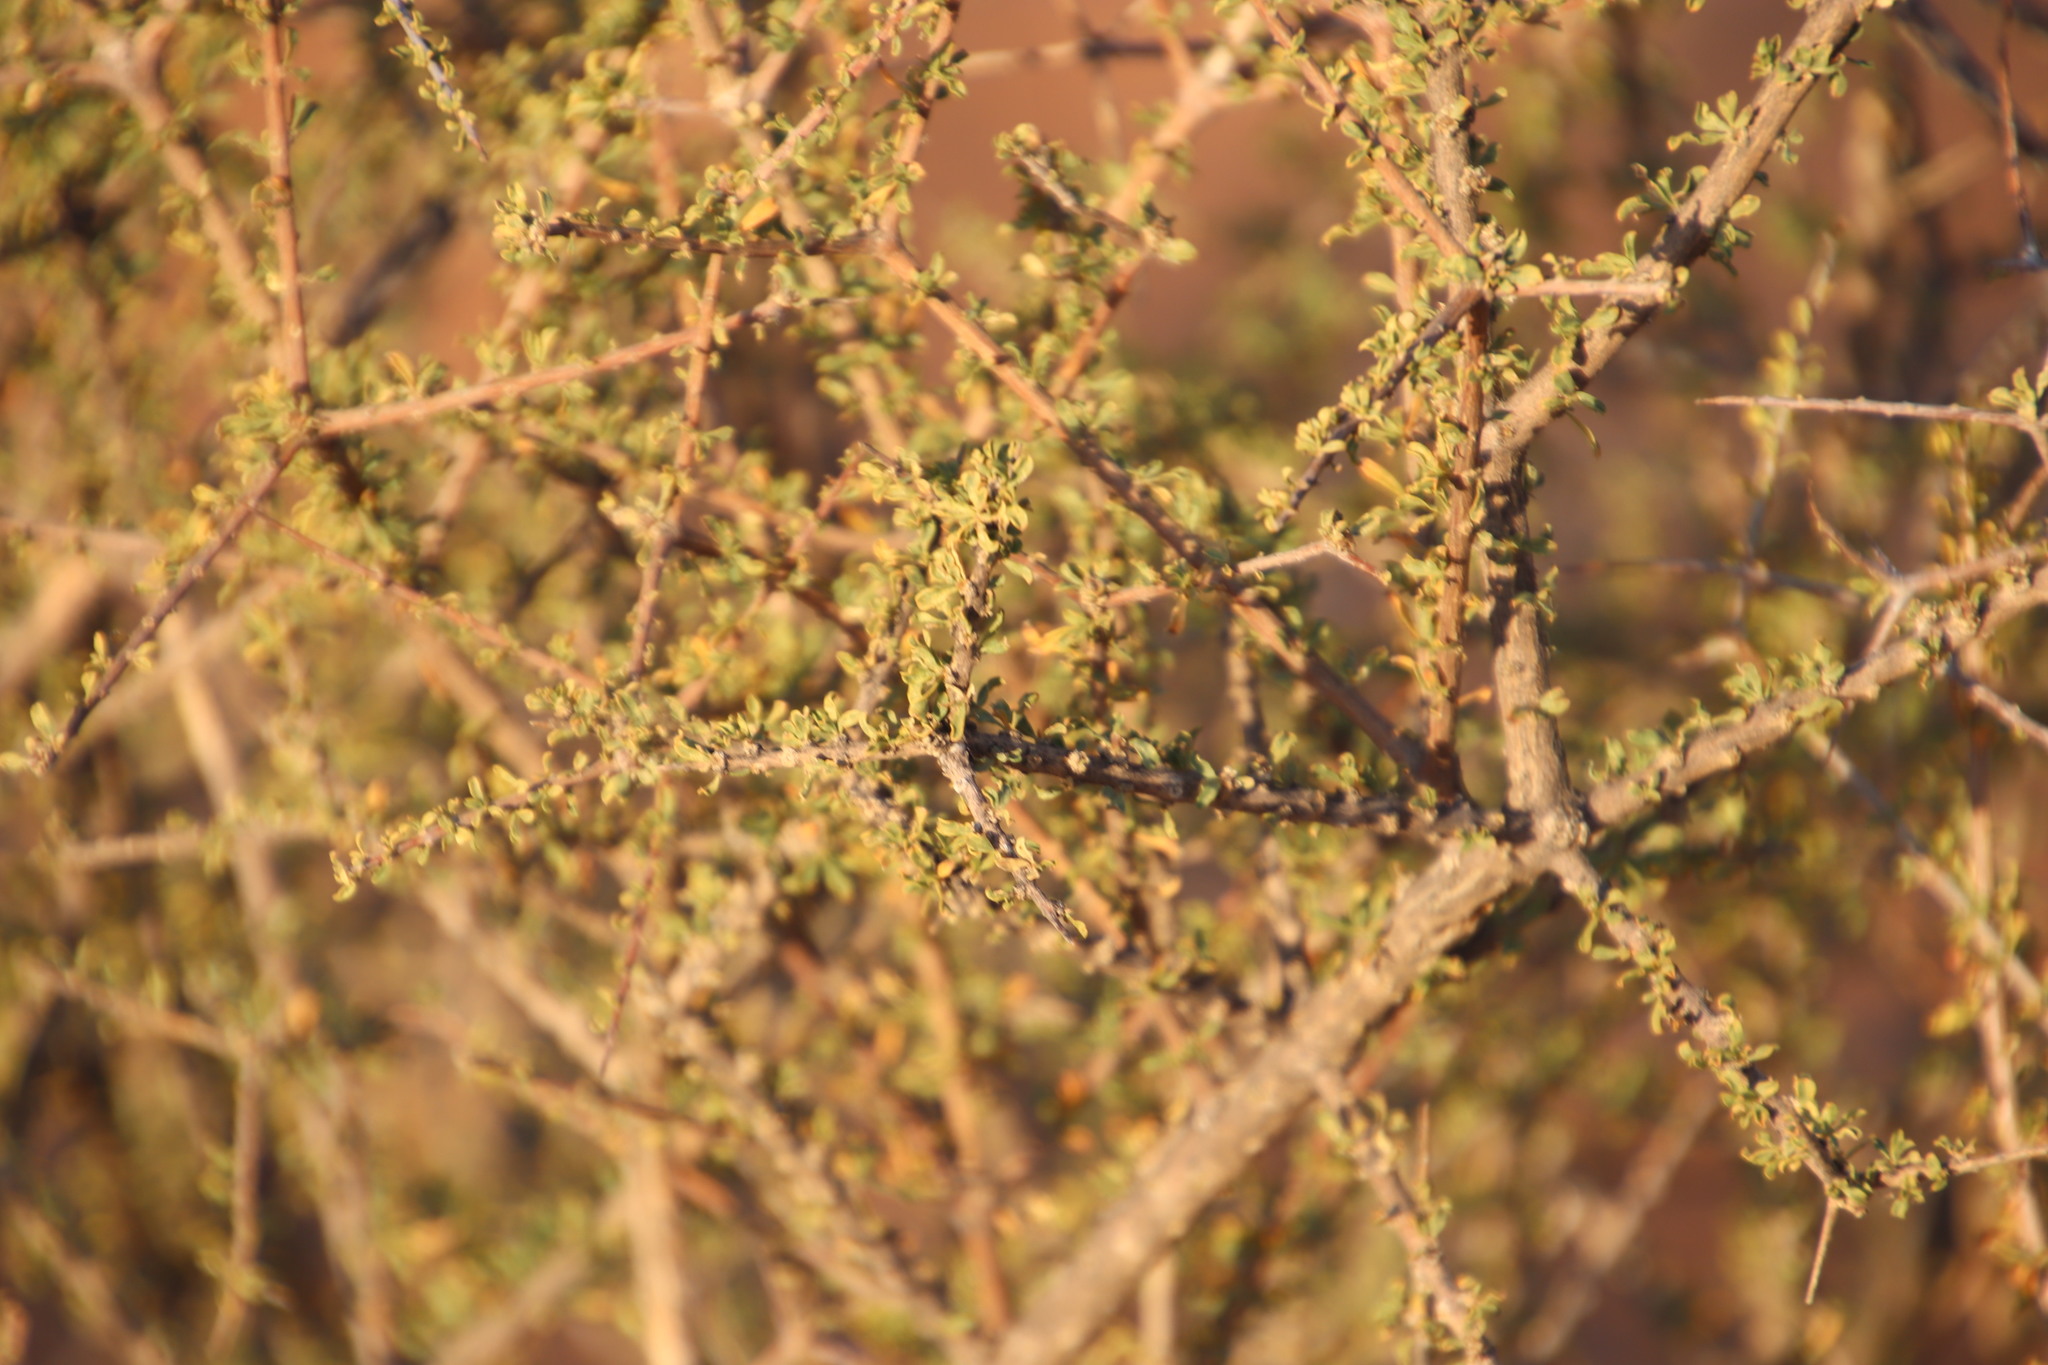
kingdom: Plantae
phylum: Tracheophyta
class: Magnoliopsida
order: Lamiales
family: Bignoniaceae
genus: Rhigozum
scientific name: Rhigozum trichotomum
